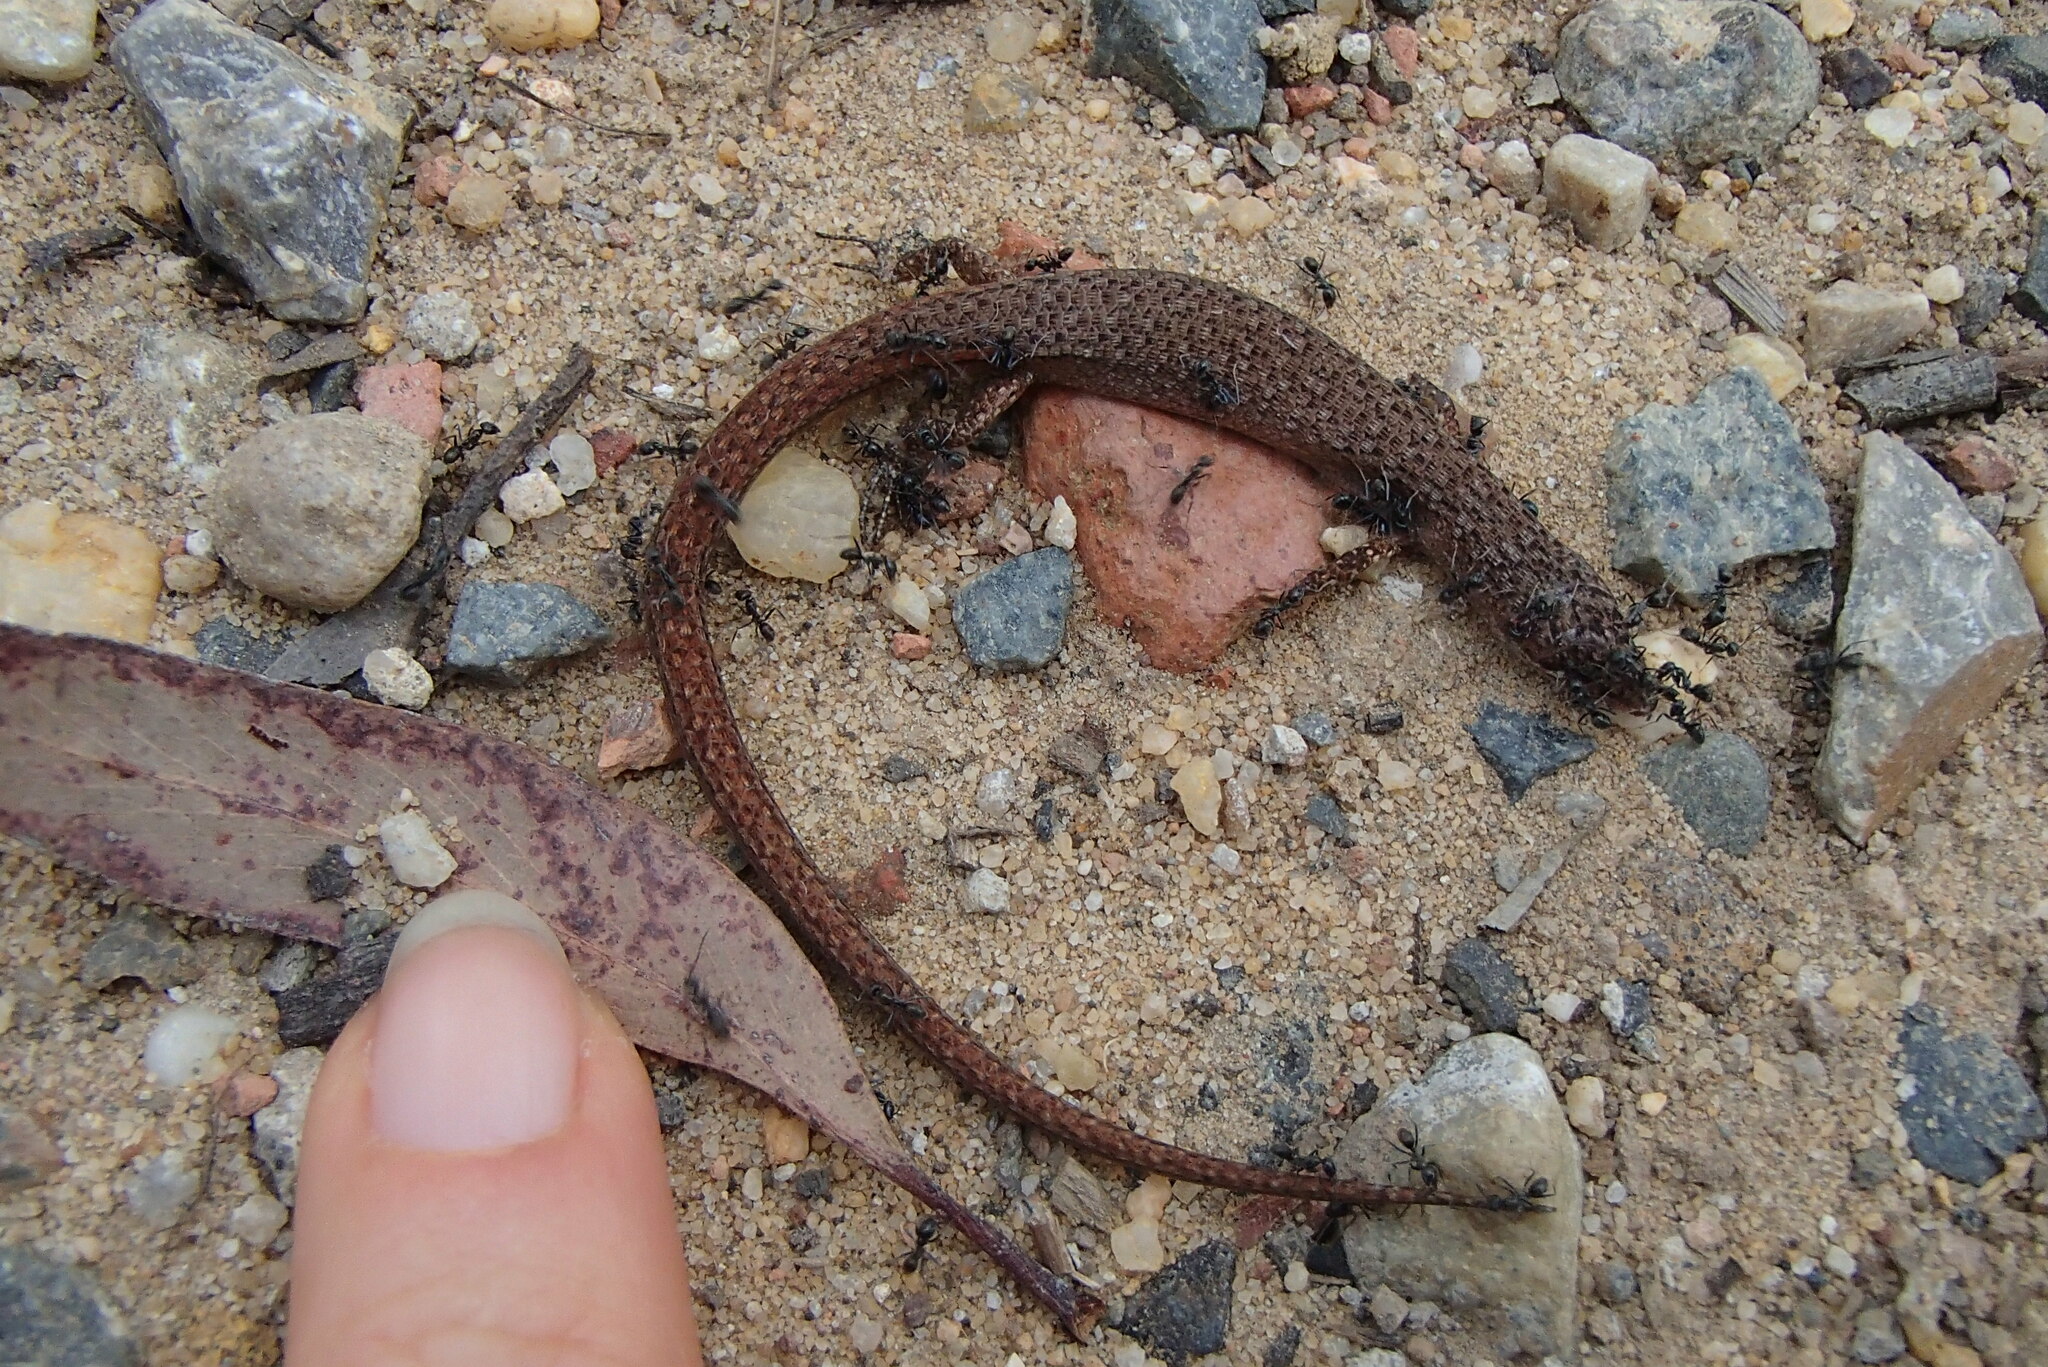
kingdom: Animalia
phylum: Chordata
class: Squamata
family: Scincidae
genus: Saproscincus
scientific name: Saproscincus mustelinus
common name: Southern weasel skink
